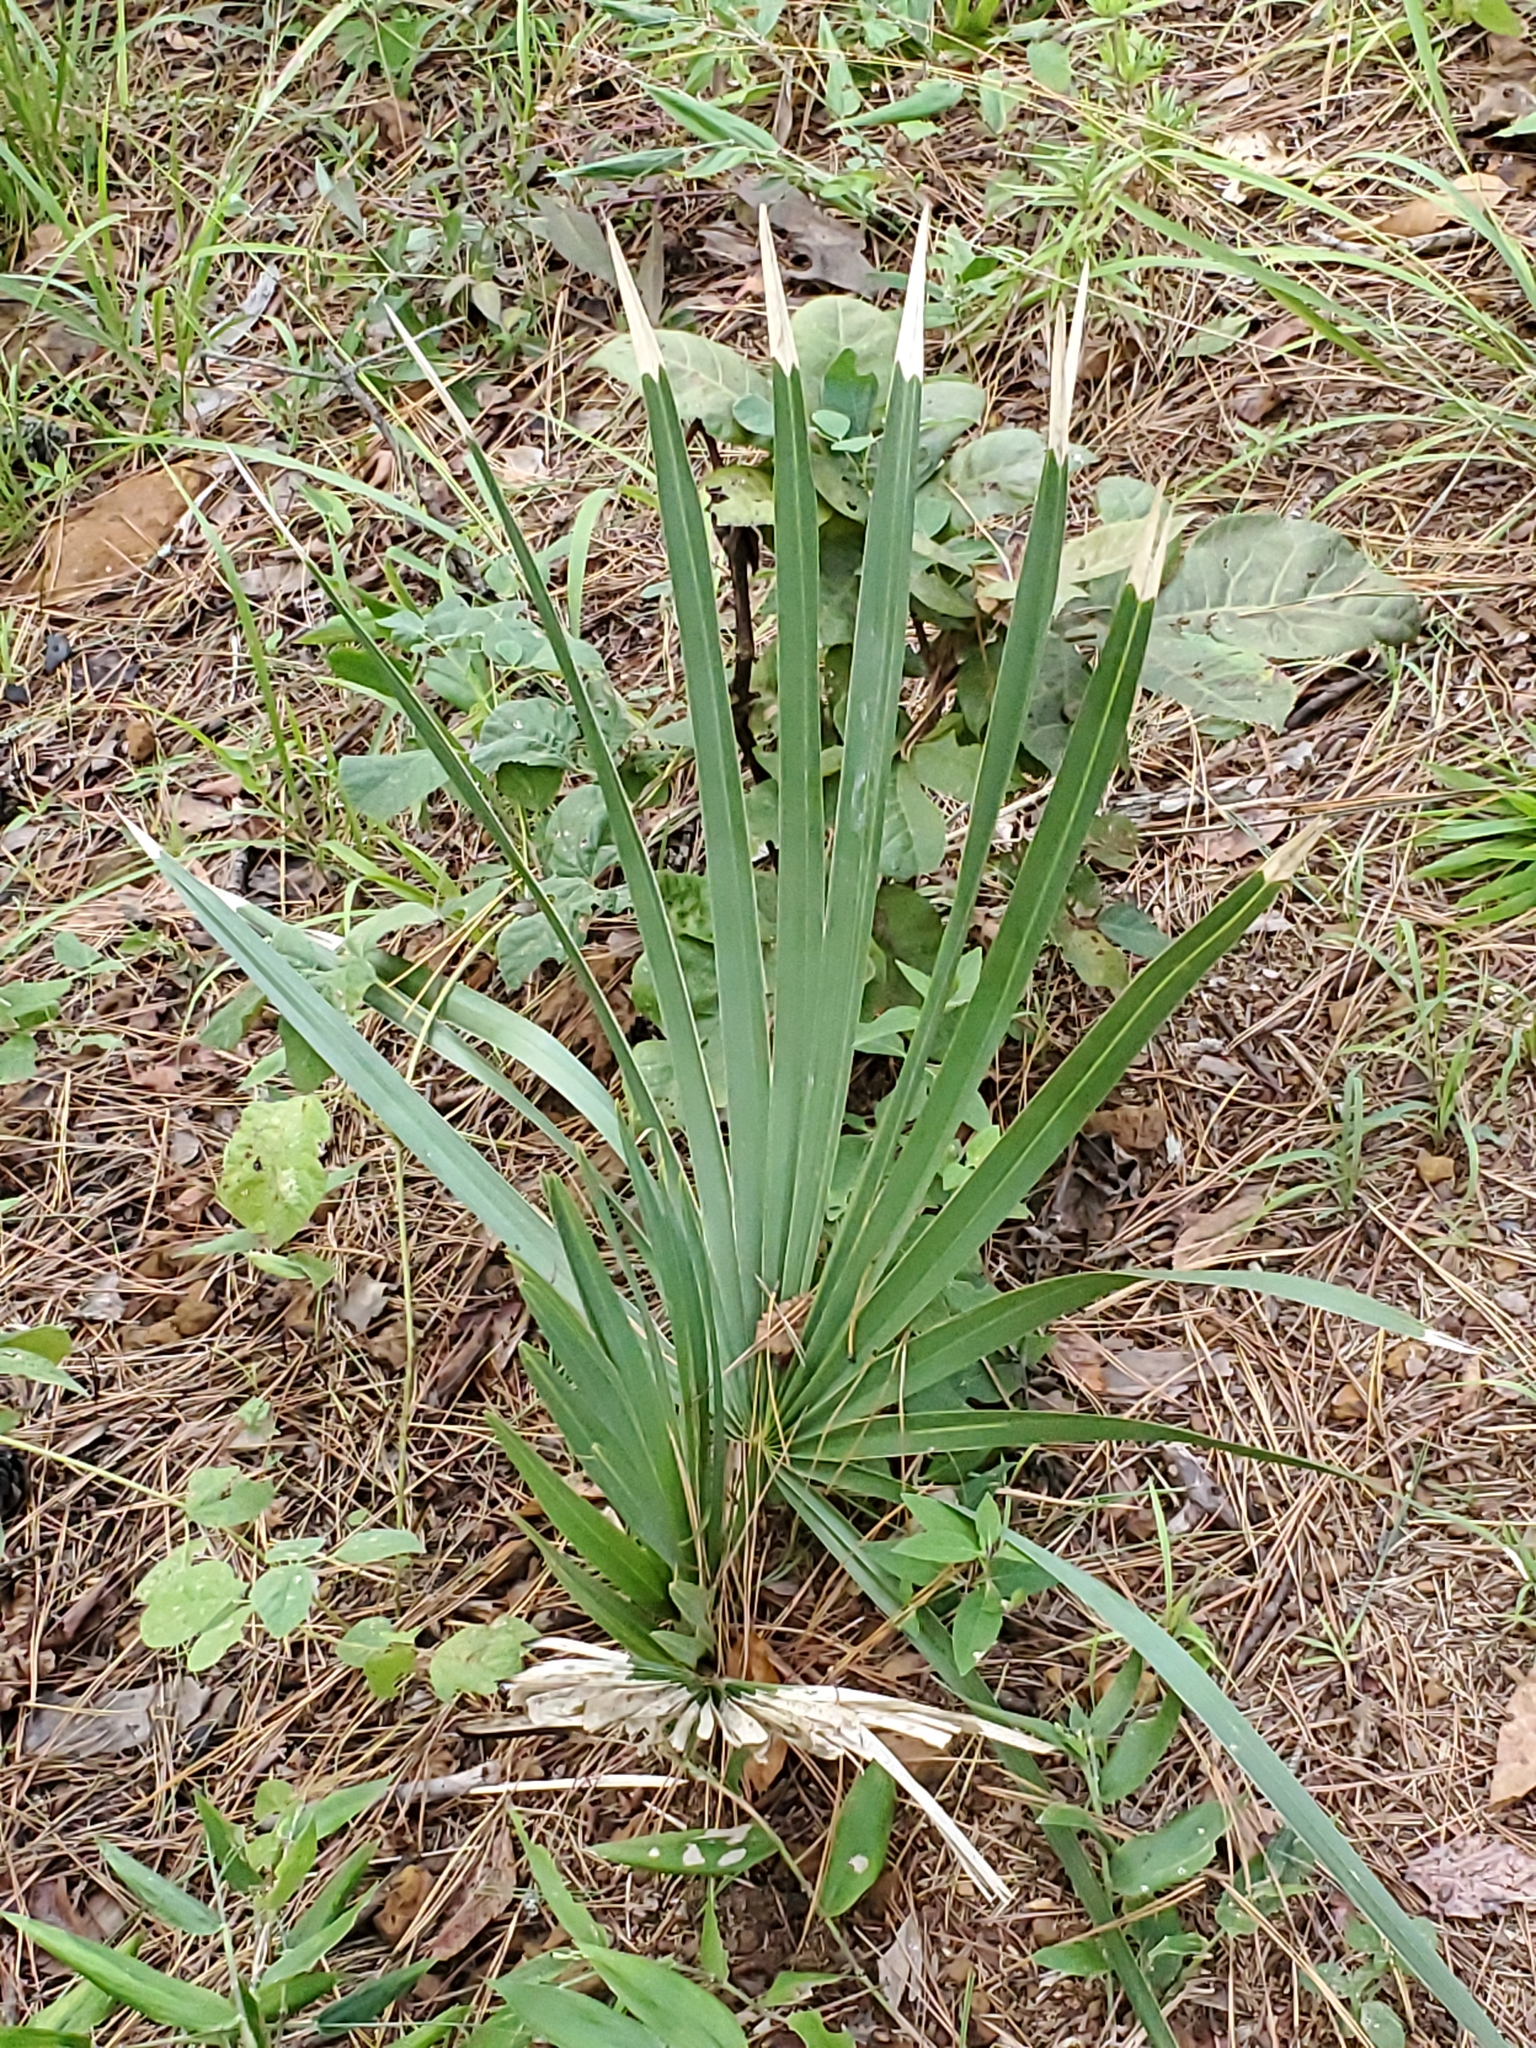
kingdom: Plantae
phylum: Tracheophyta
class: Liliopsida
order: Arecales
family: Arecaceae
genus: Sabal
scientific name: Sabal minor
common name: Dwarf palmetto
